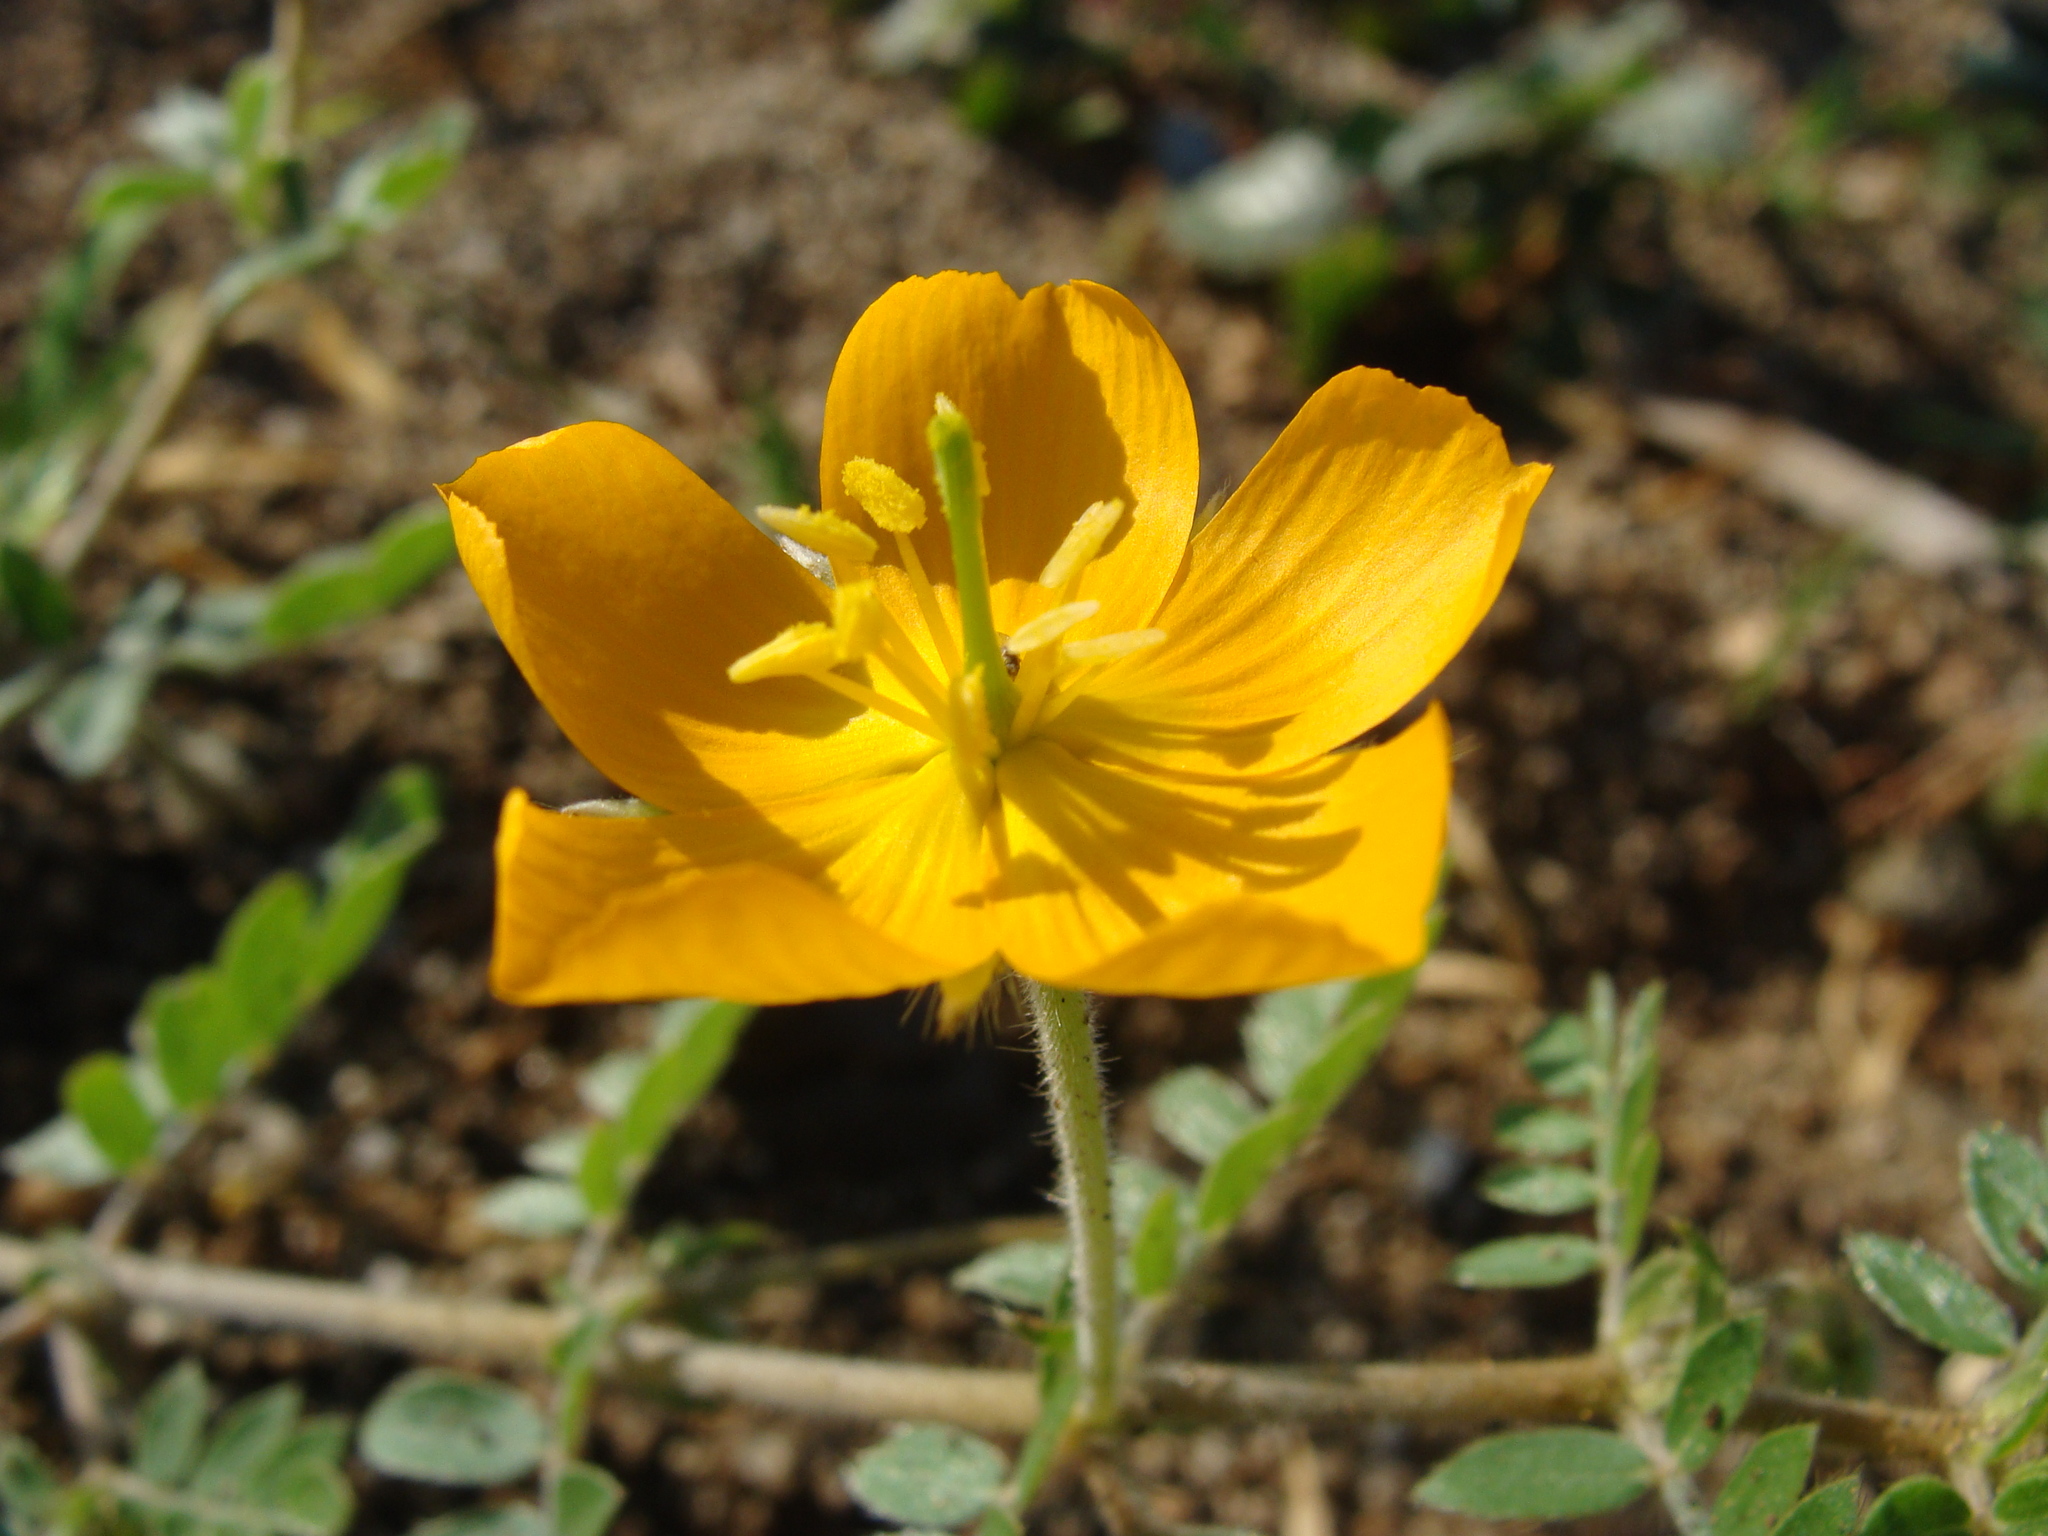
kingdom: Plantae
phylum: Tracheophyta
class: Magnoliopsida
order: Zygophyllales
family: Zygophyllaceae
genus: Kallstroemia
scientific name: Kallstroemia peninsularis
